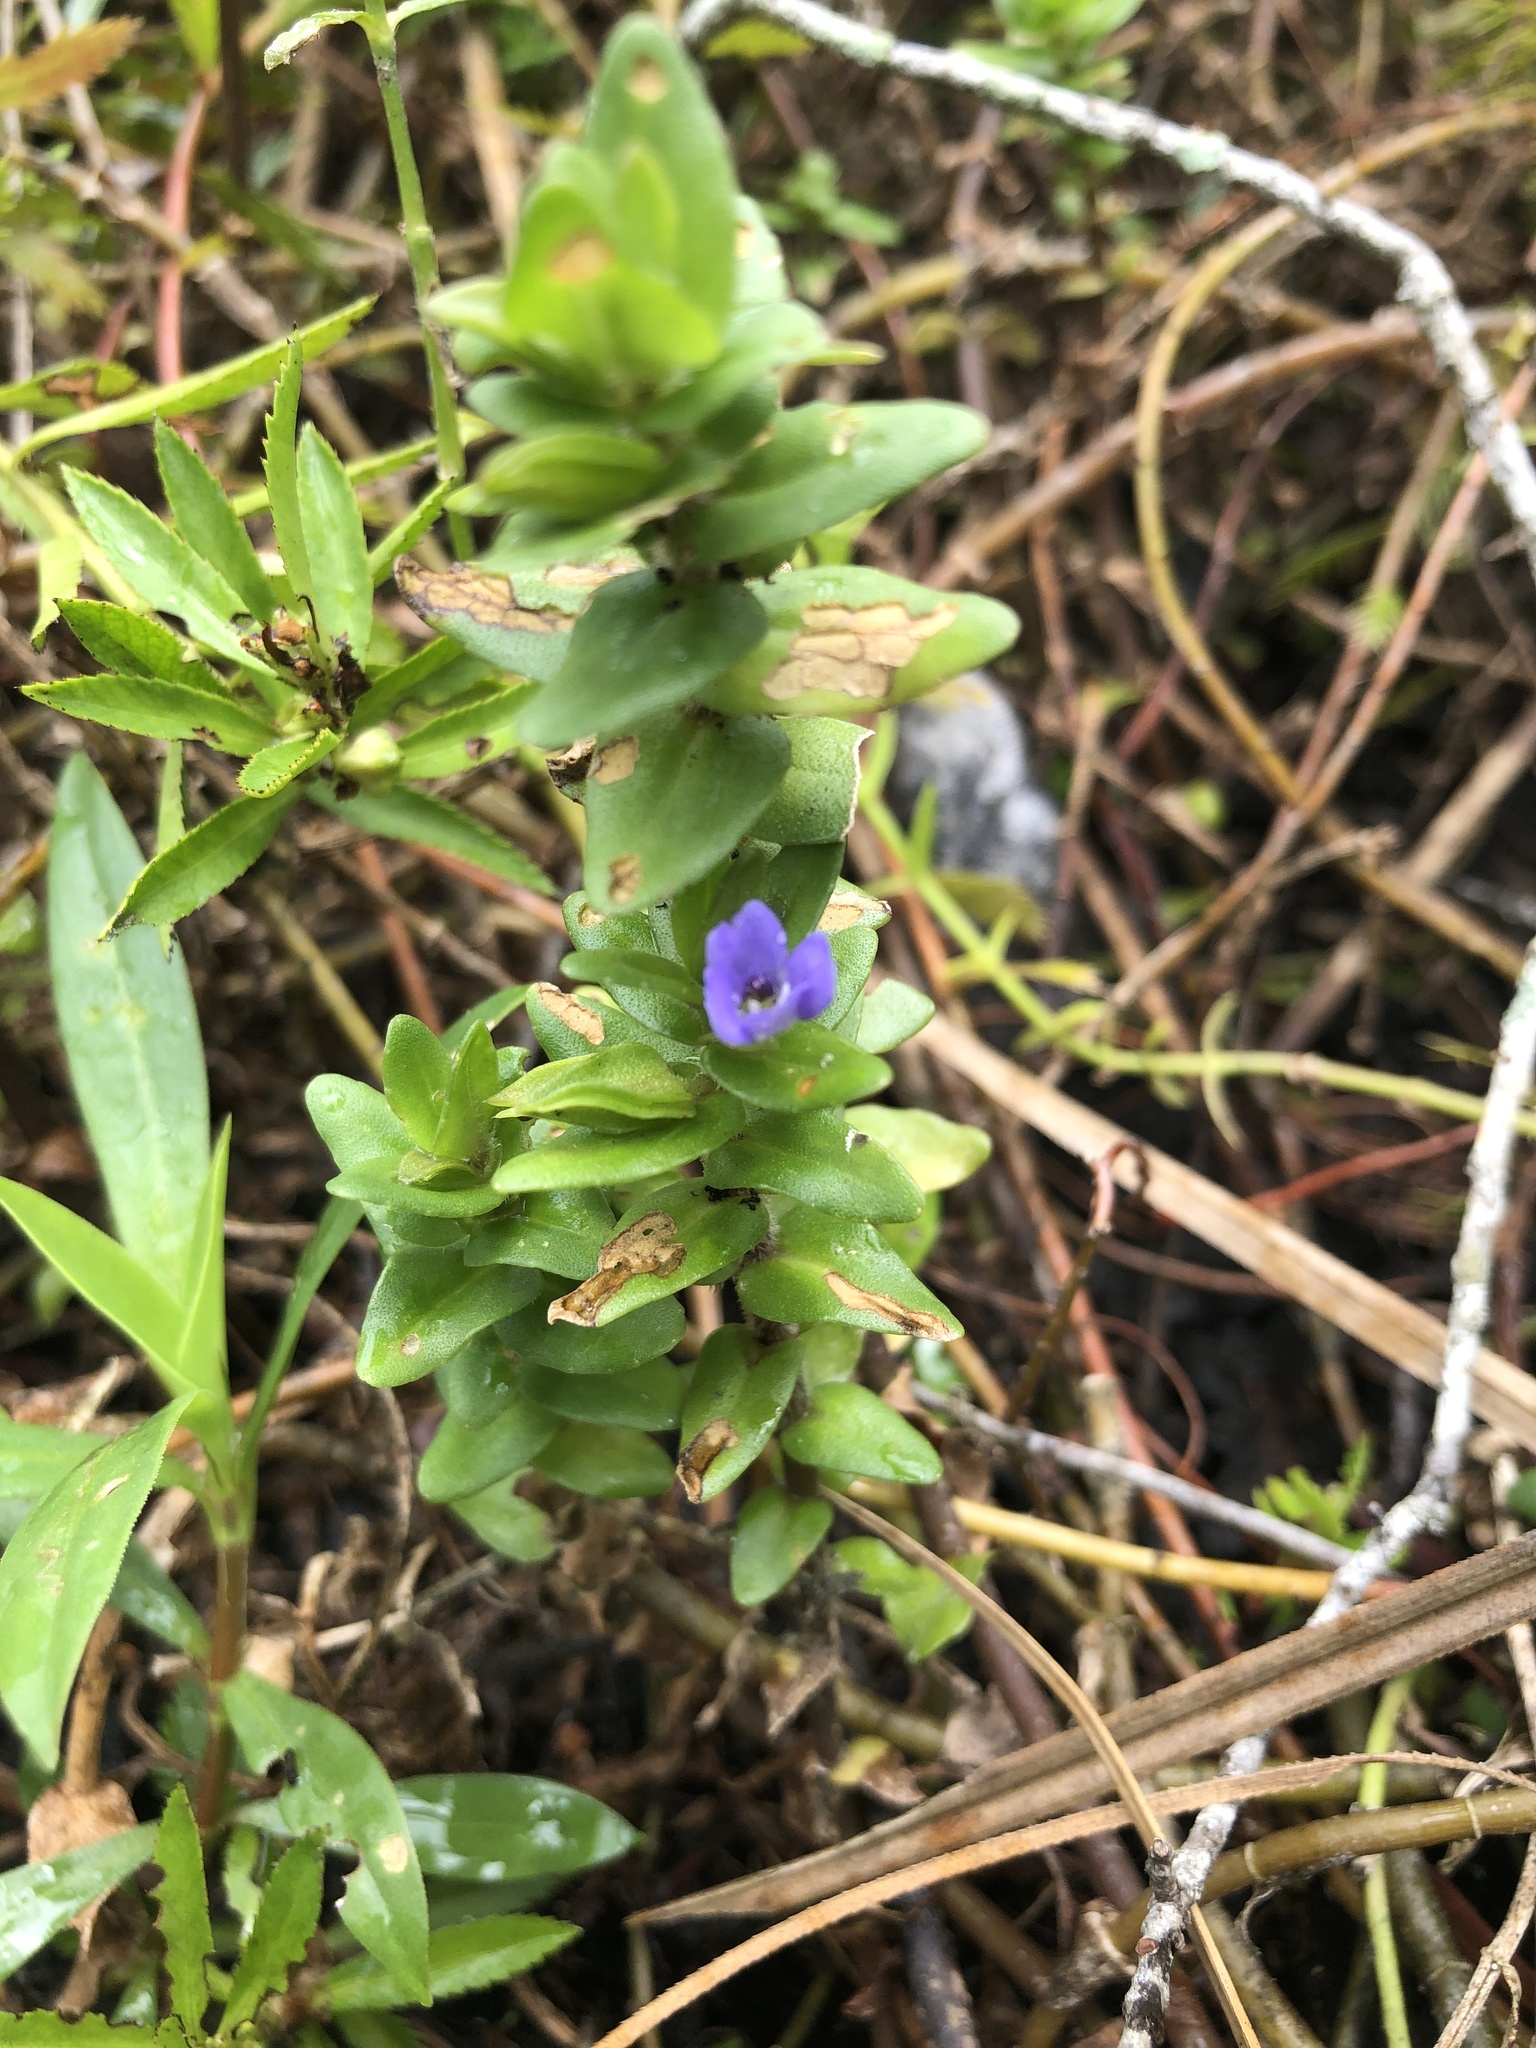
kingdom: Plantae
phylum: Tracheophyta
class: Magnoliopsida
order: Lamiales
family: Plantaginaceae
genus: Bacopa
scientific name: Bacopa caroliniana
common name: Lemon bacopa
